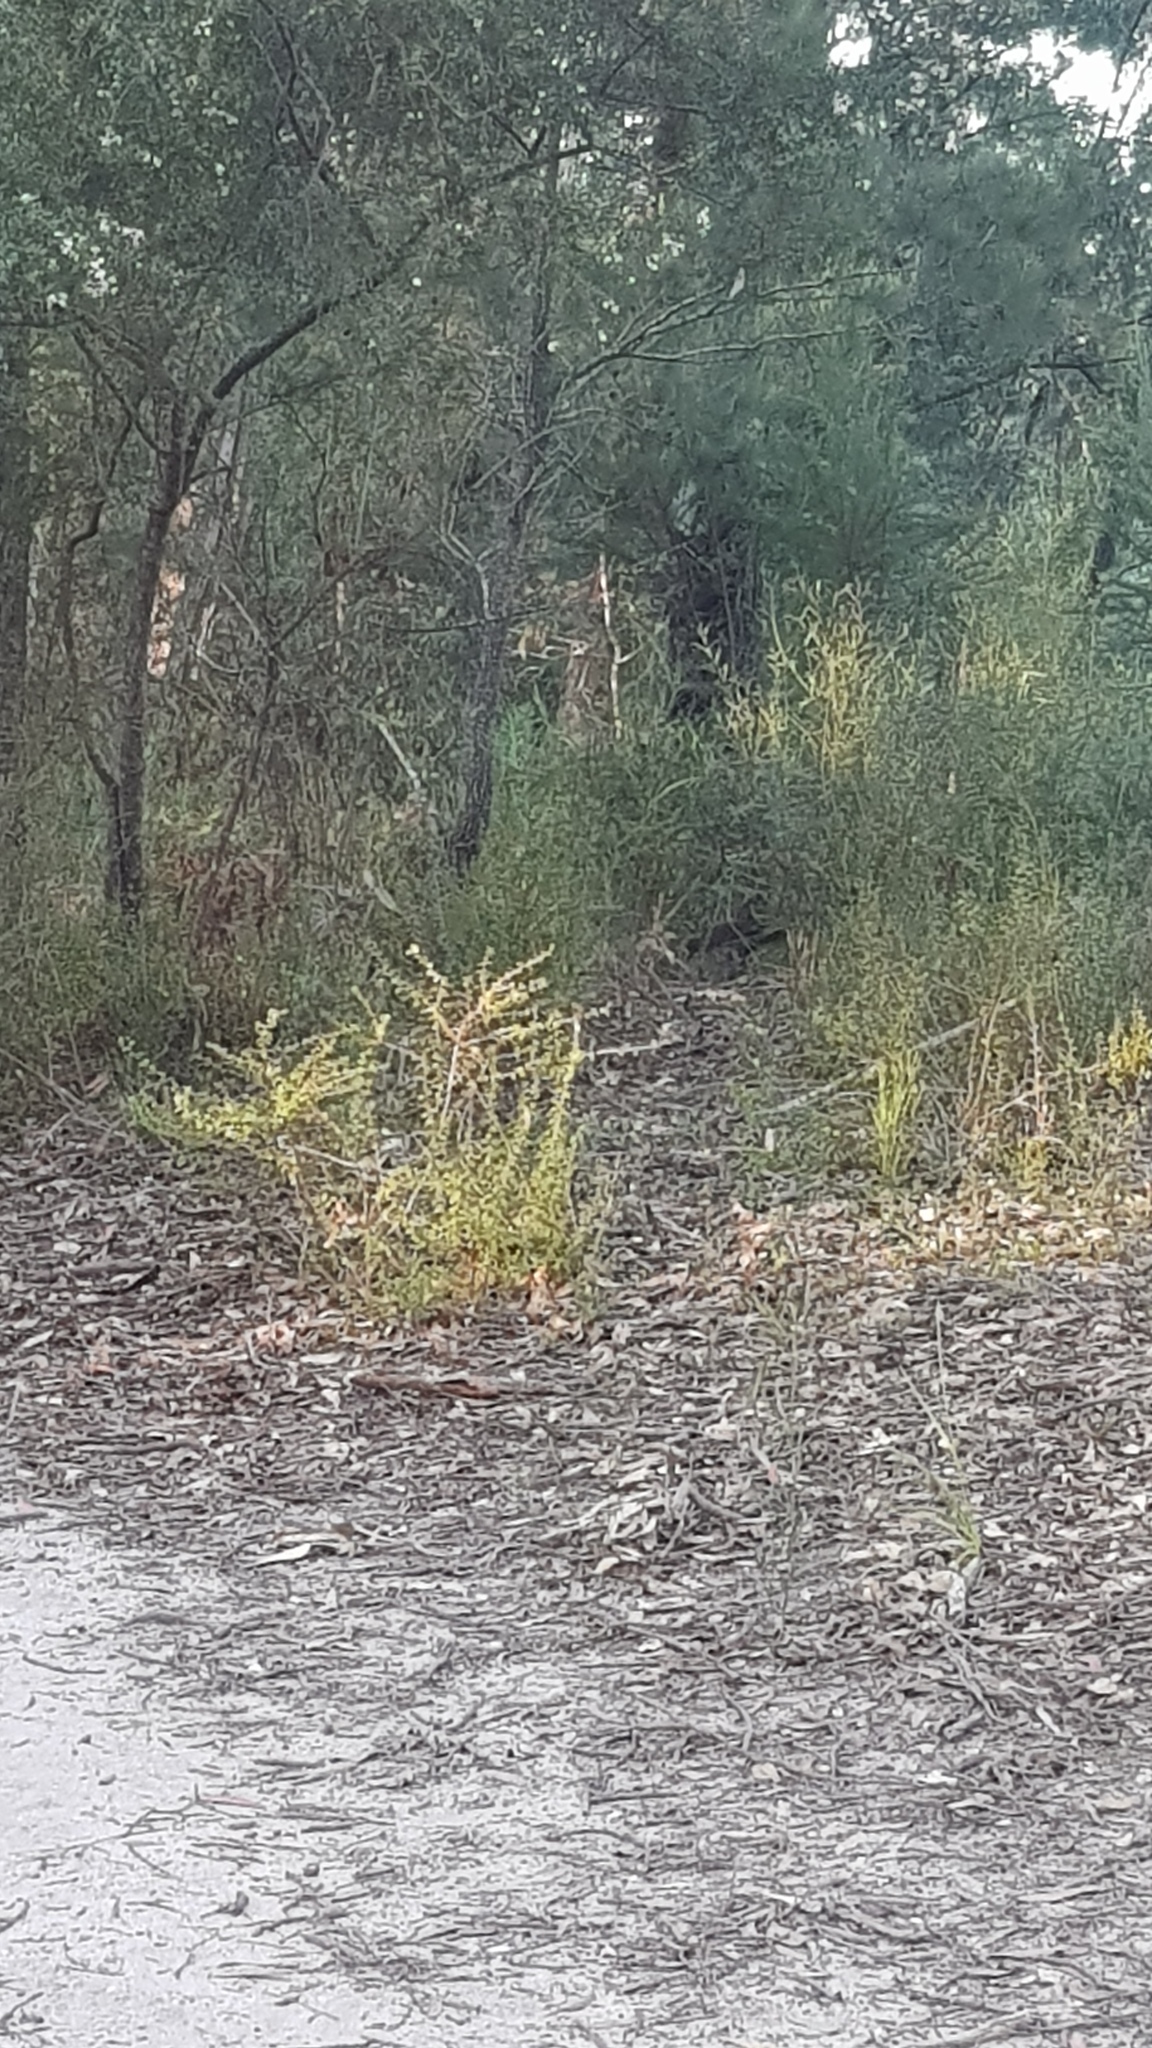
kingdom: Animalia
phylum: Chordata
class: Aves
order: Passeriformes
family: Menuridae
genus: Menura
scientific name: Menura novaehollandiae
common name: Superb lyrebird
